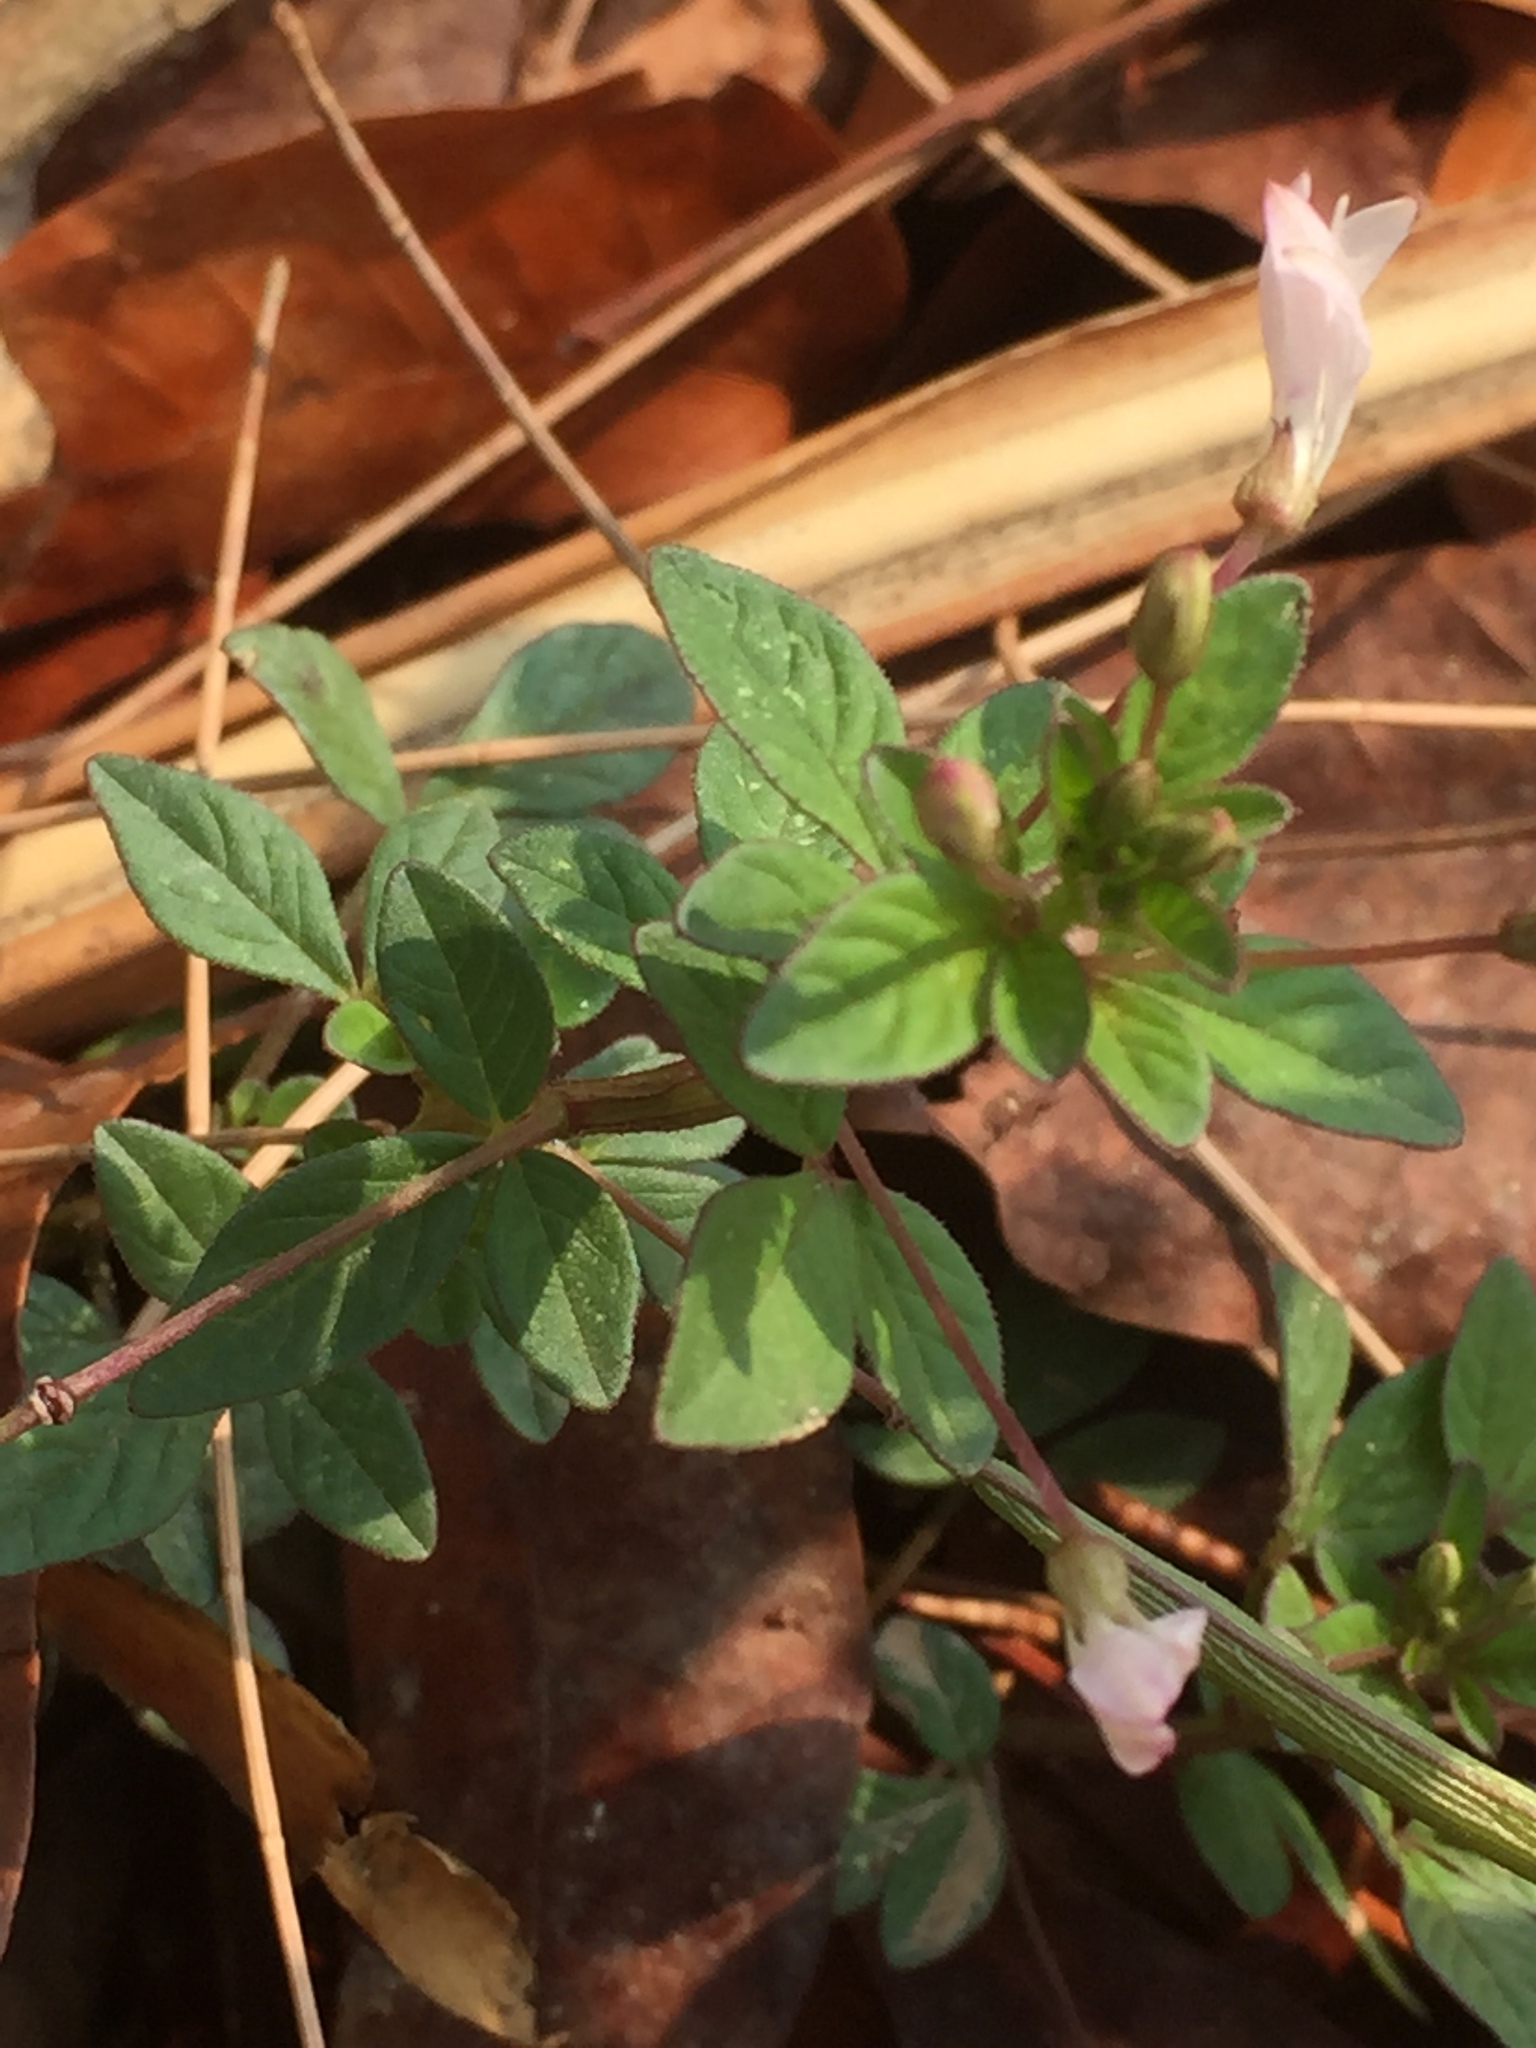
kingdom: Plantae
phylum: Tracheophyta
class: Magnoliopsida
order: Brassicales
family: Cleomaceae
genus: Sieruela
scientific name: Sieruela rutidosperma
